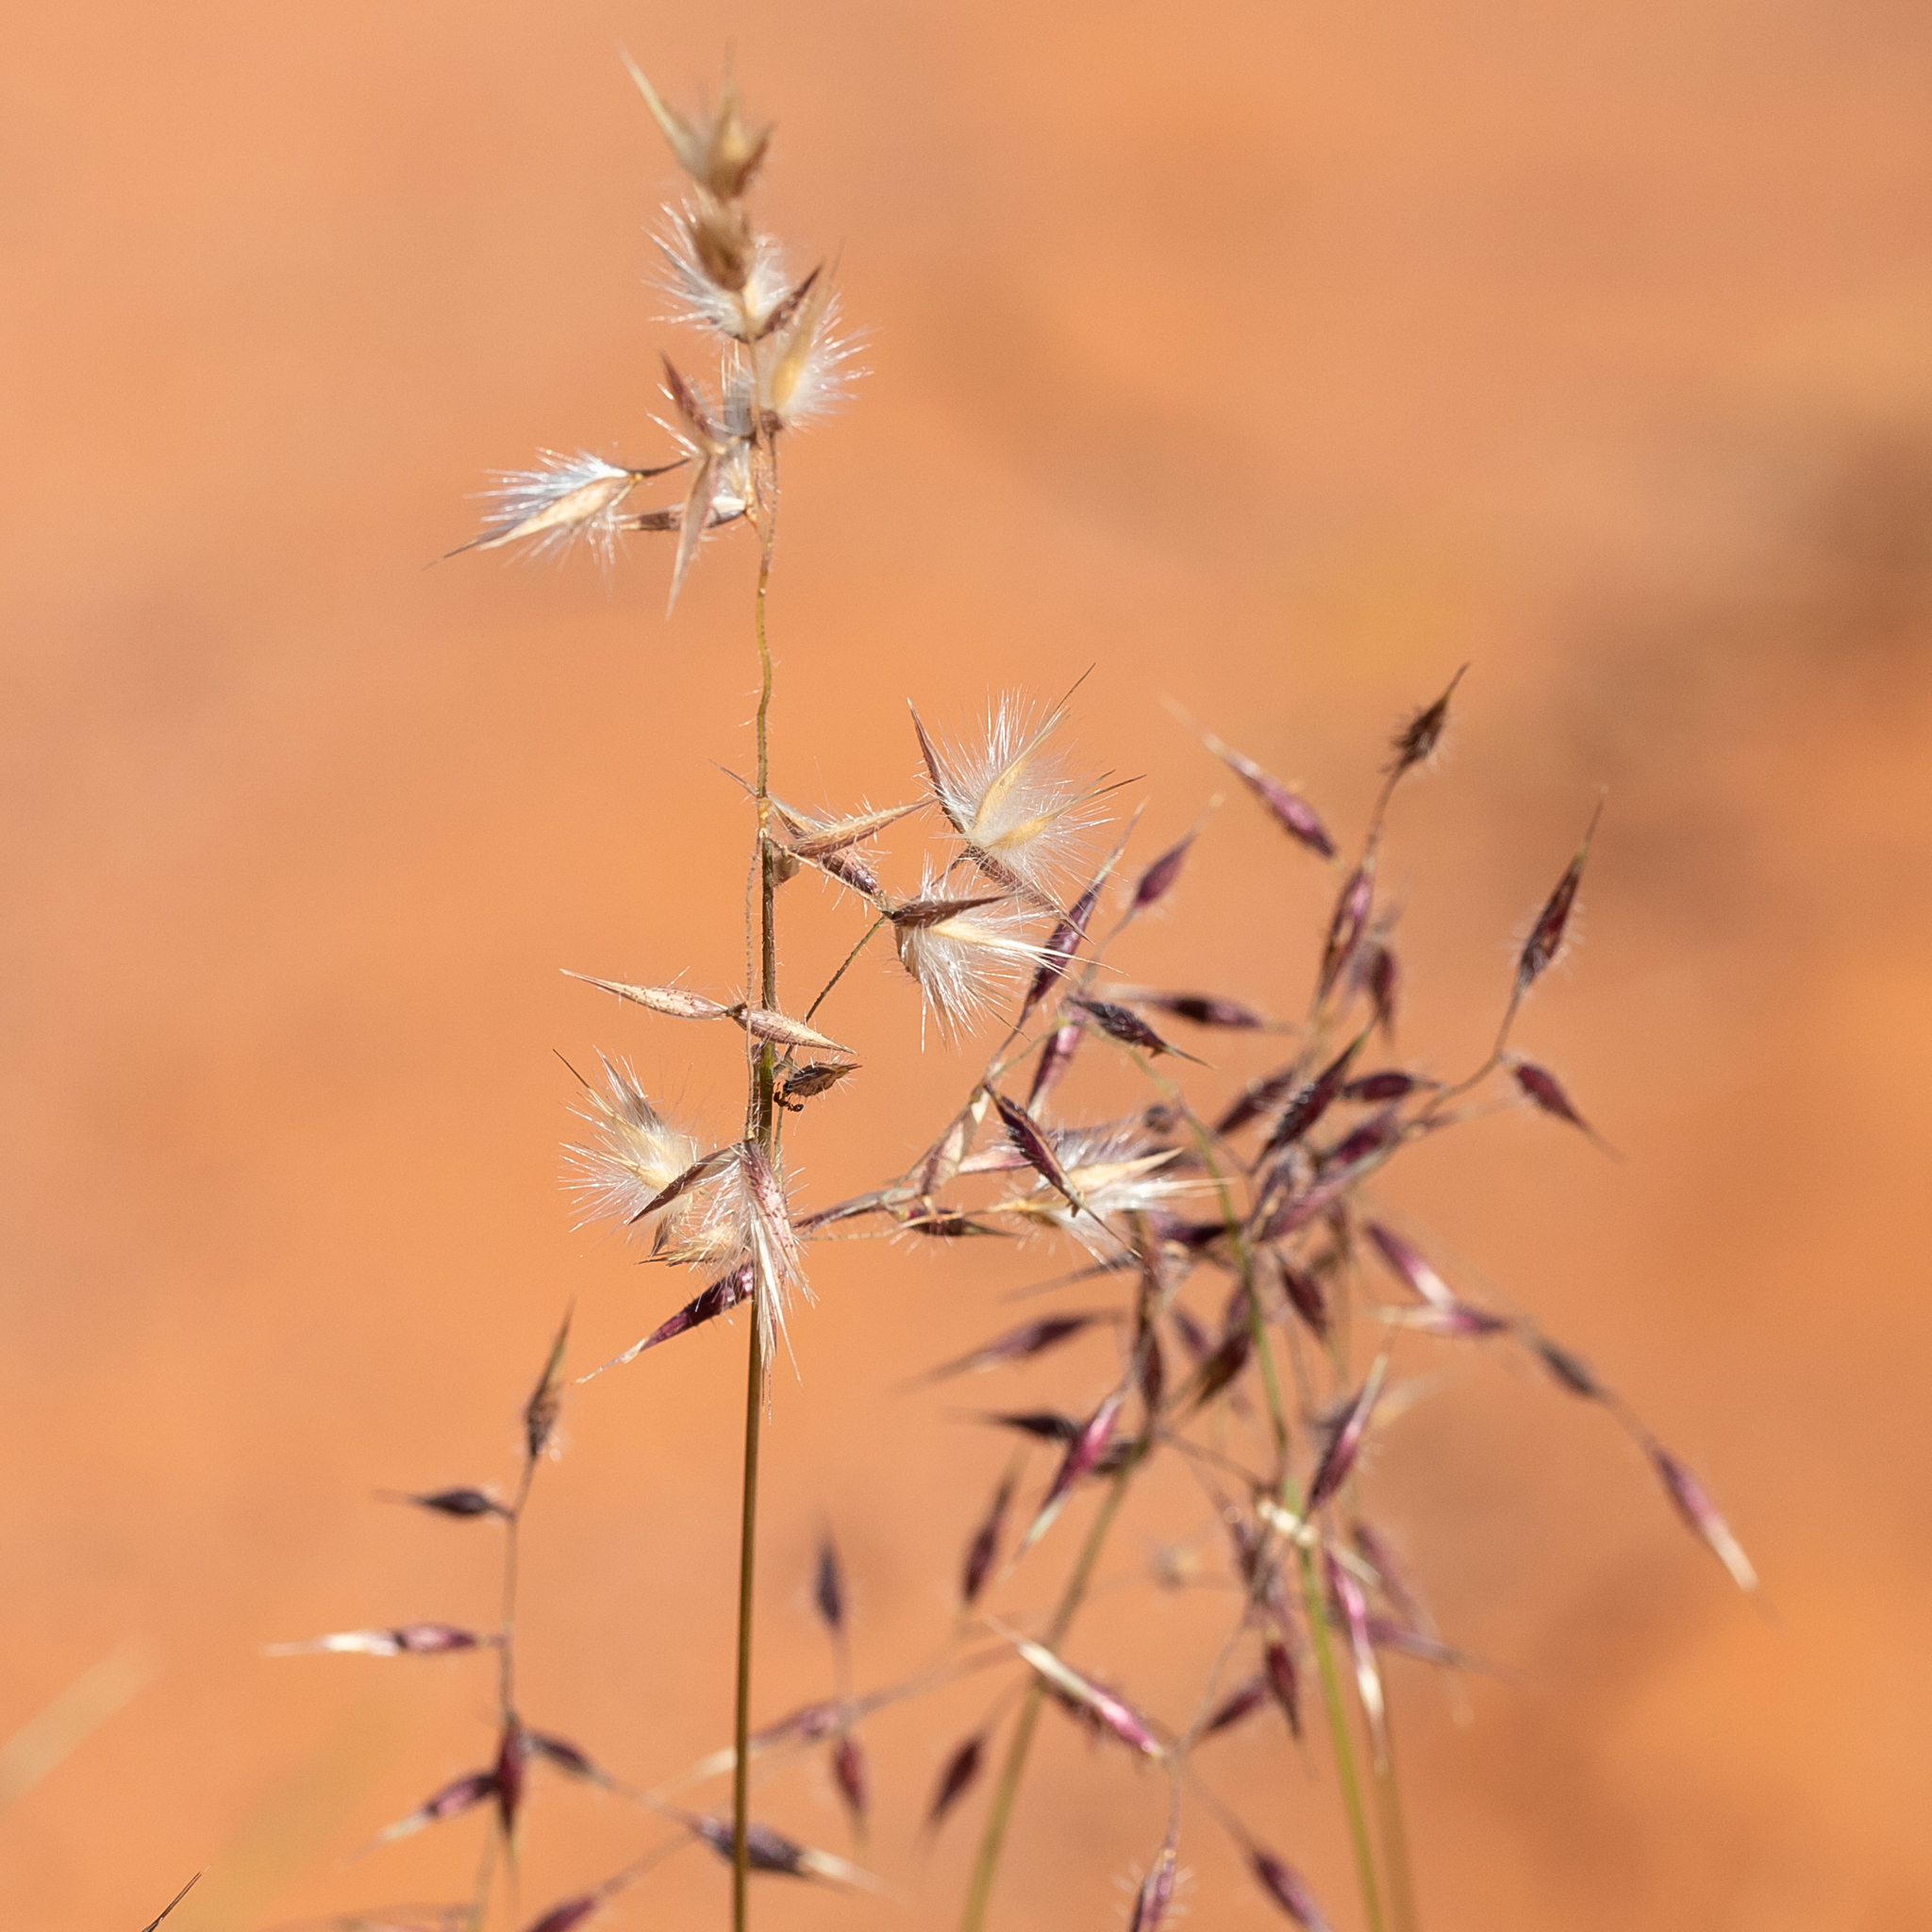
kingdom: Plantae
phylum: Tracheophyta
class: Liliopsida
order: Poales
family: Poaceae
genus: Eriachne
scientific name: Eriachne aristidea
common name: Three-awn wanderrie grass
